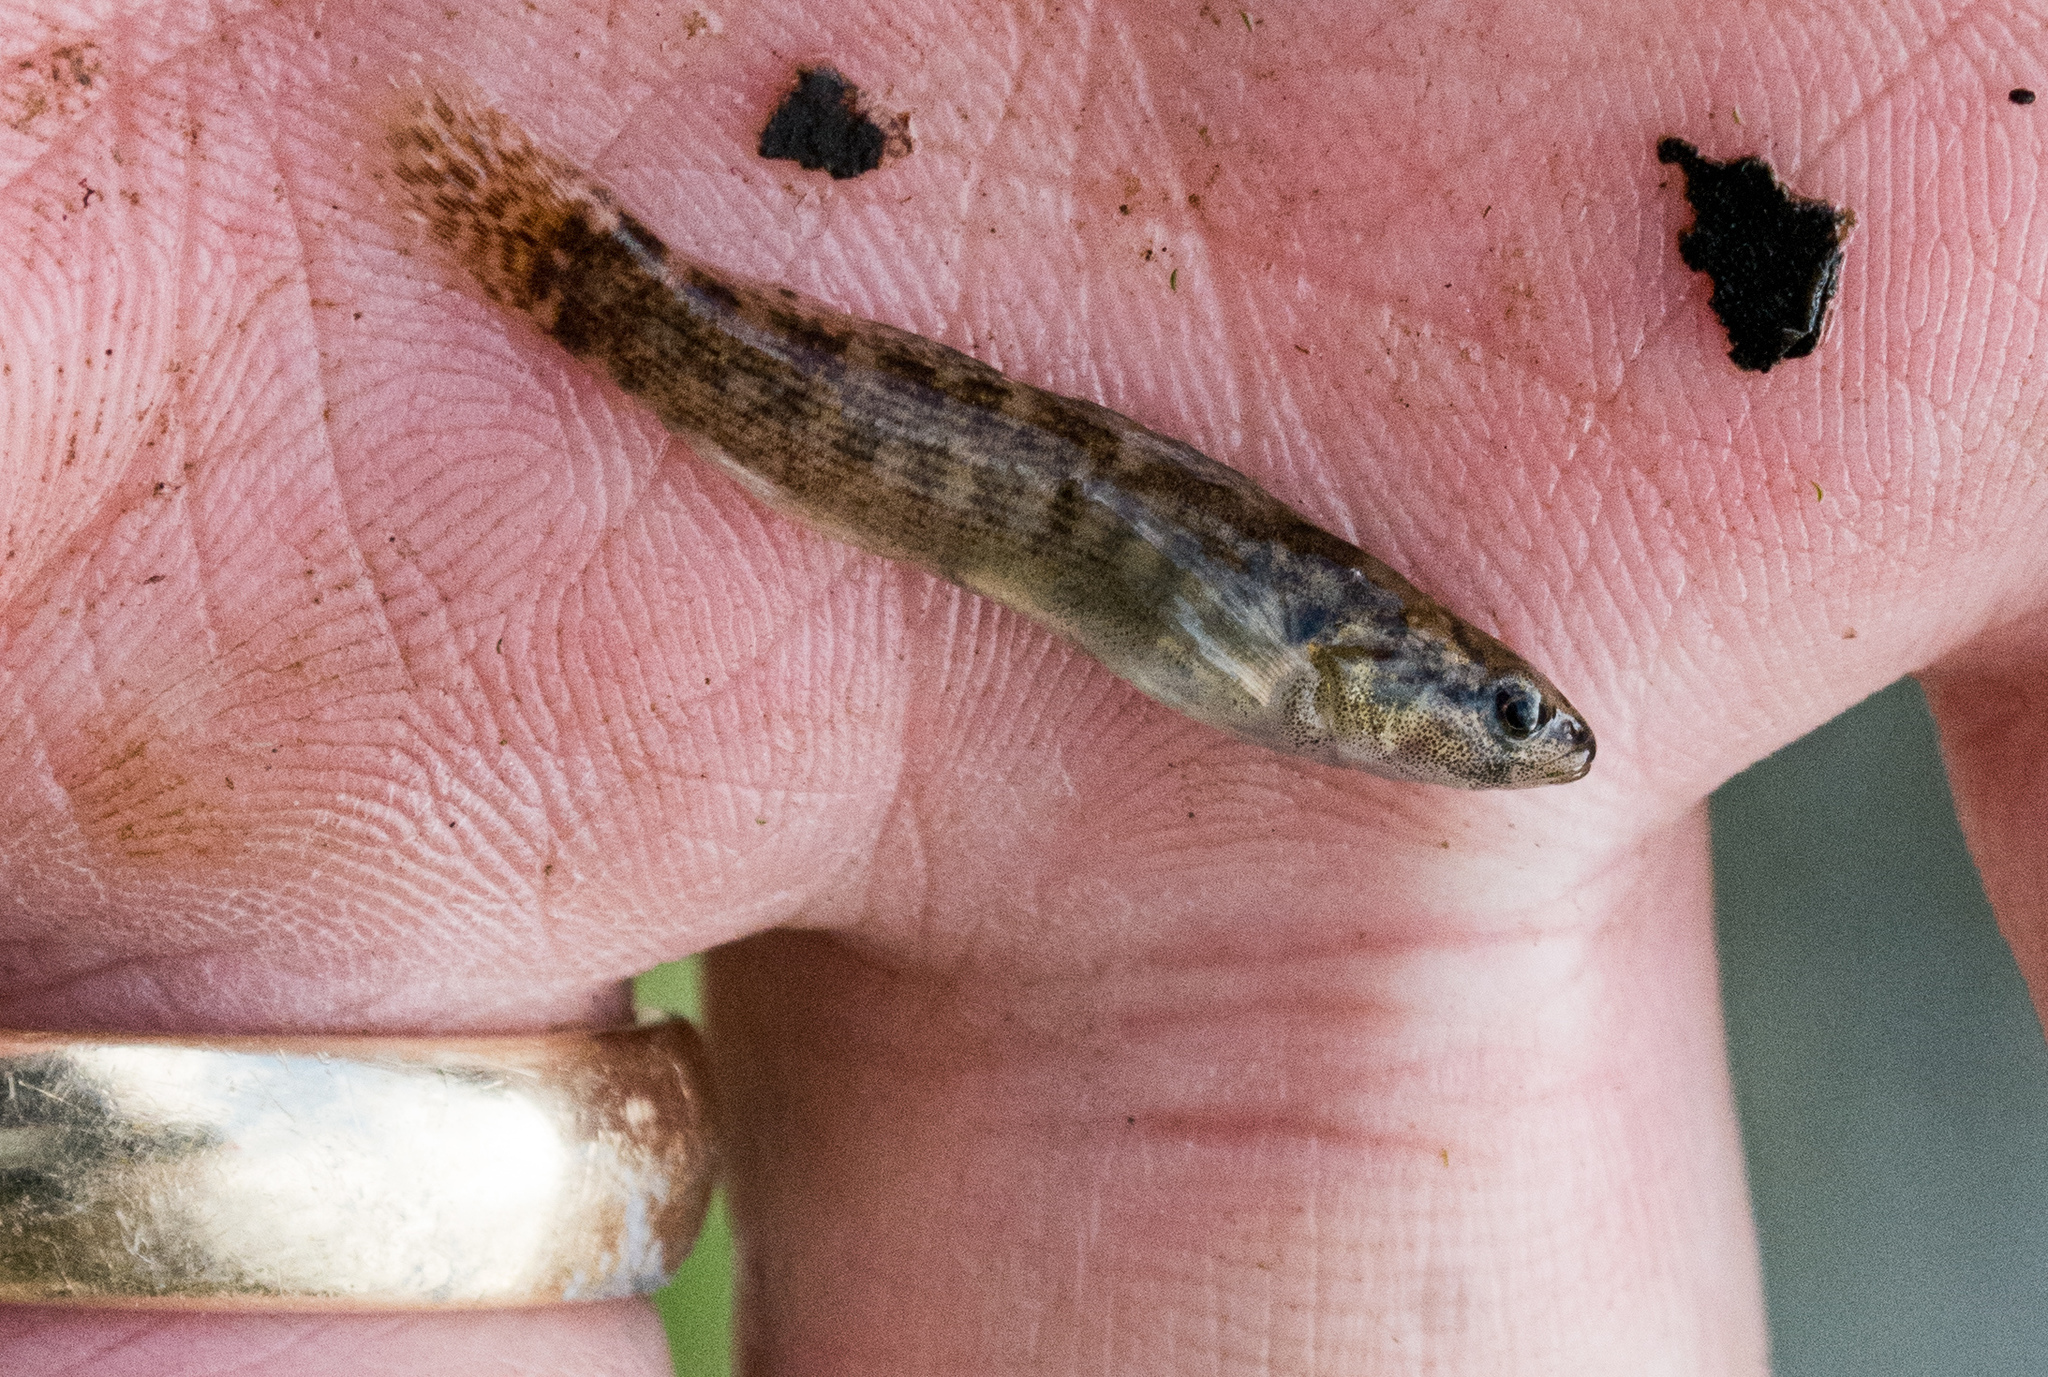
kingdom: Animalia
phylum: Chordata
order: Perciformes
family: Percidae
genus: Etheostoma
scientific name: Etheostoma flabellare
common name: Fantail darter
